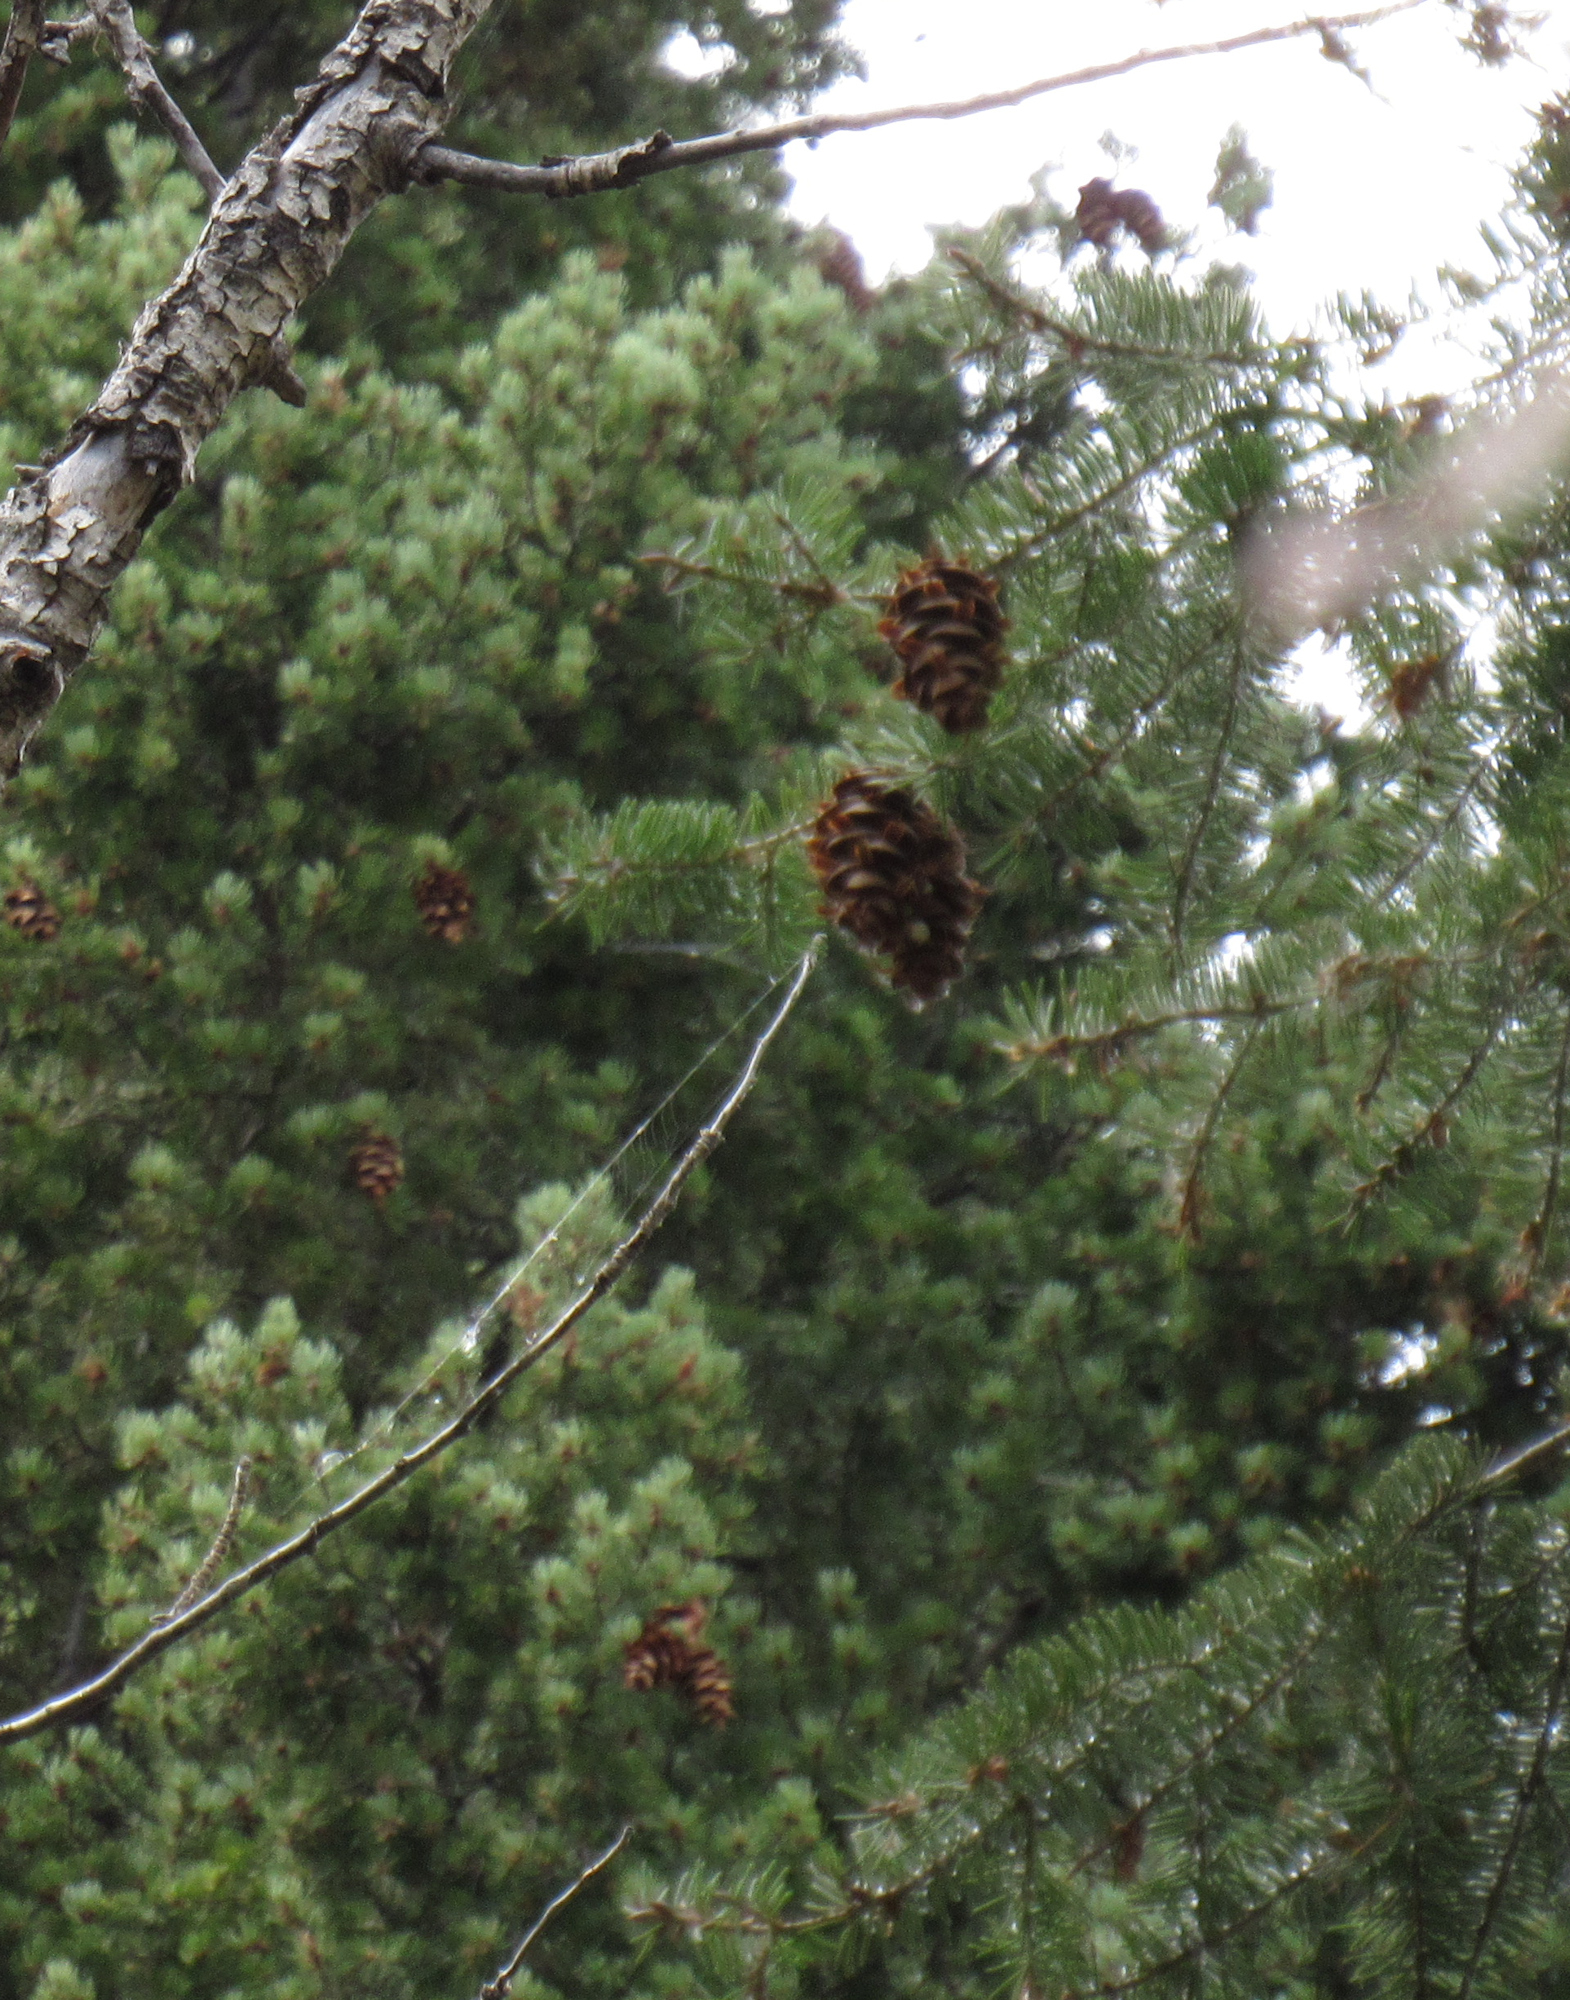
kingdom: Plantae
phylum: Tracheophyta
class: Pinopsida
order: Pinales
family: Pinaceae
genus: Pseudotsuga
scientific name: Pseudotsuga menziesii
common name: Douglas fir
